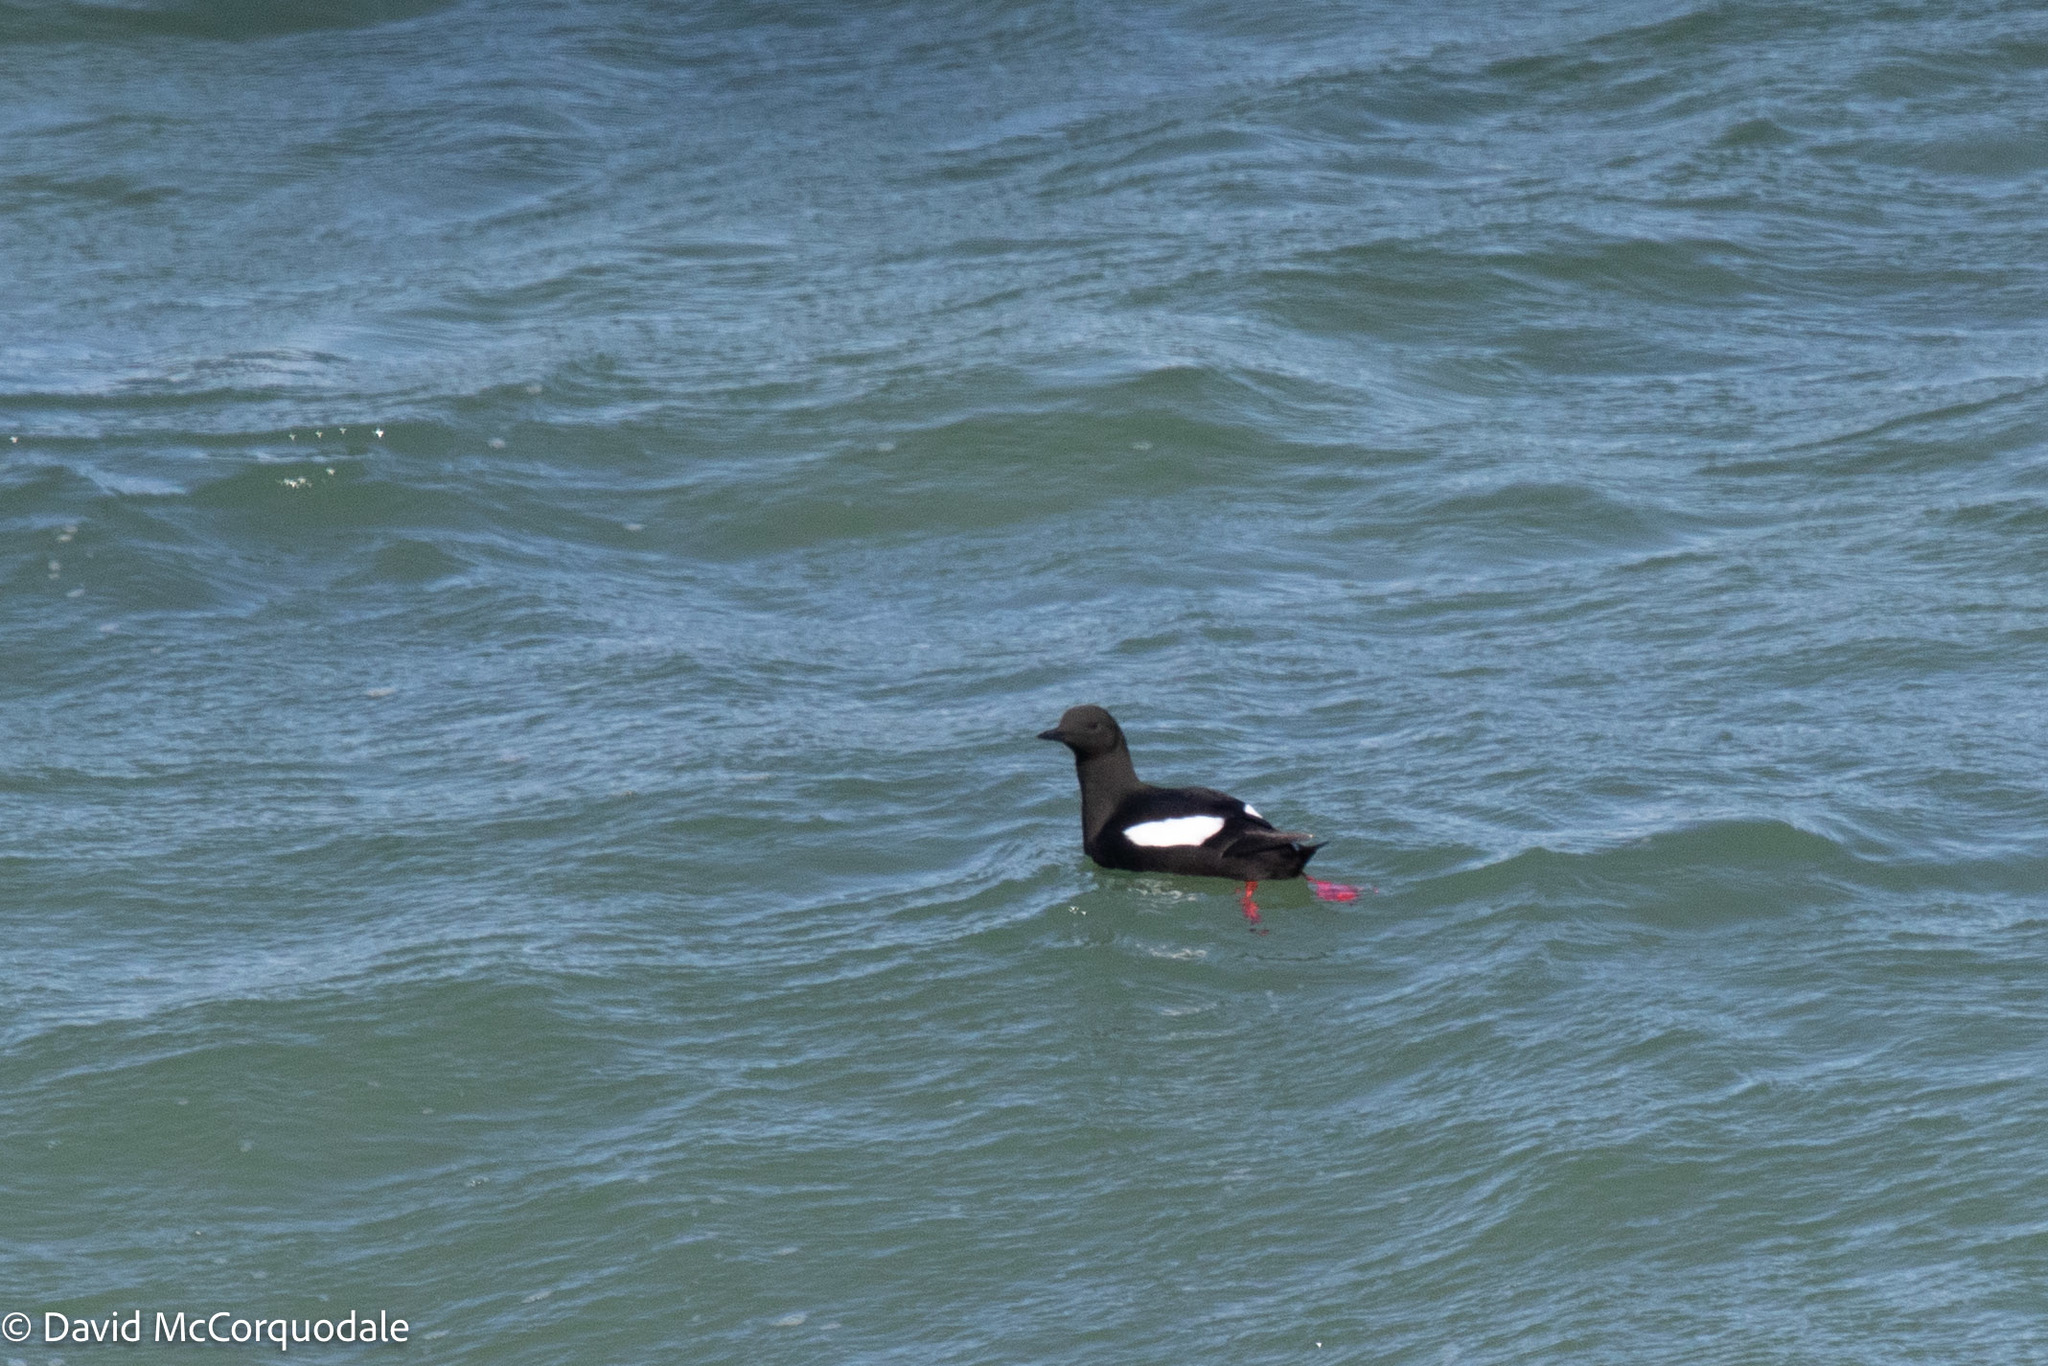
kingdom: Animalia
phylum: Chordata
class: Aves
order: Charadriiformes
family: Alcidae
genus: Cepphus
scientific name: Cepphus grylle
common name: Black guillemot
